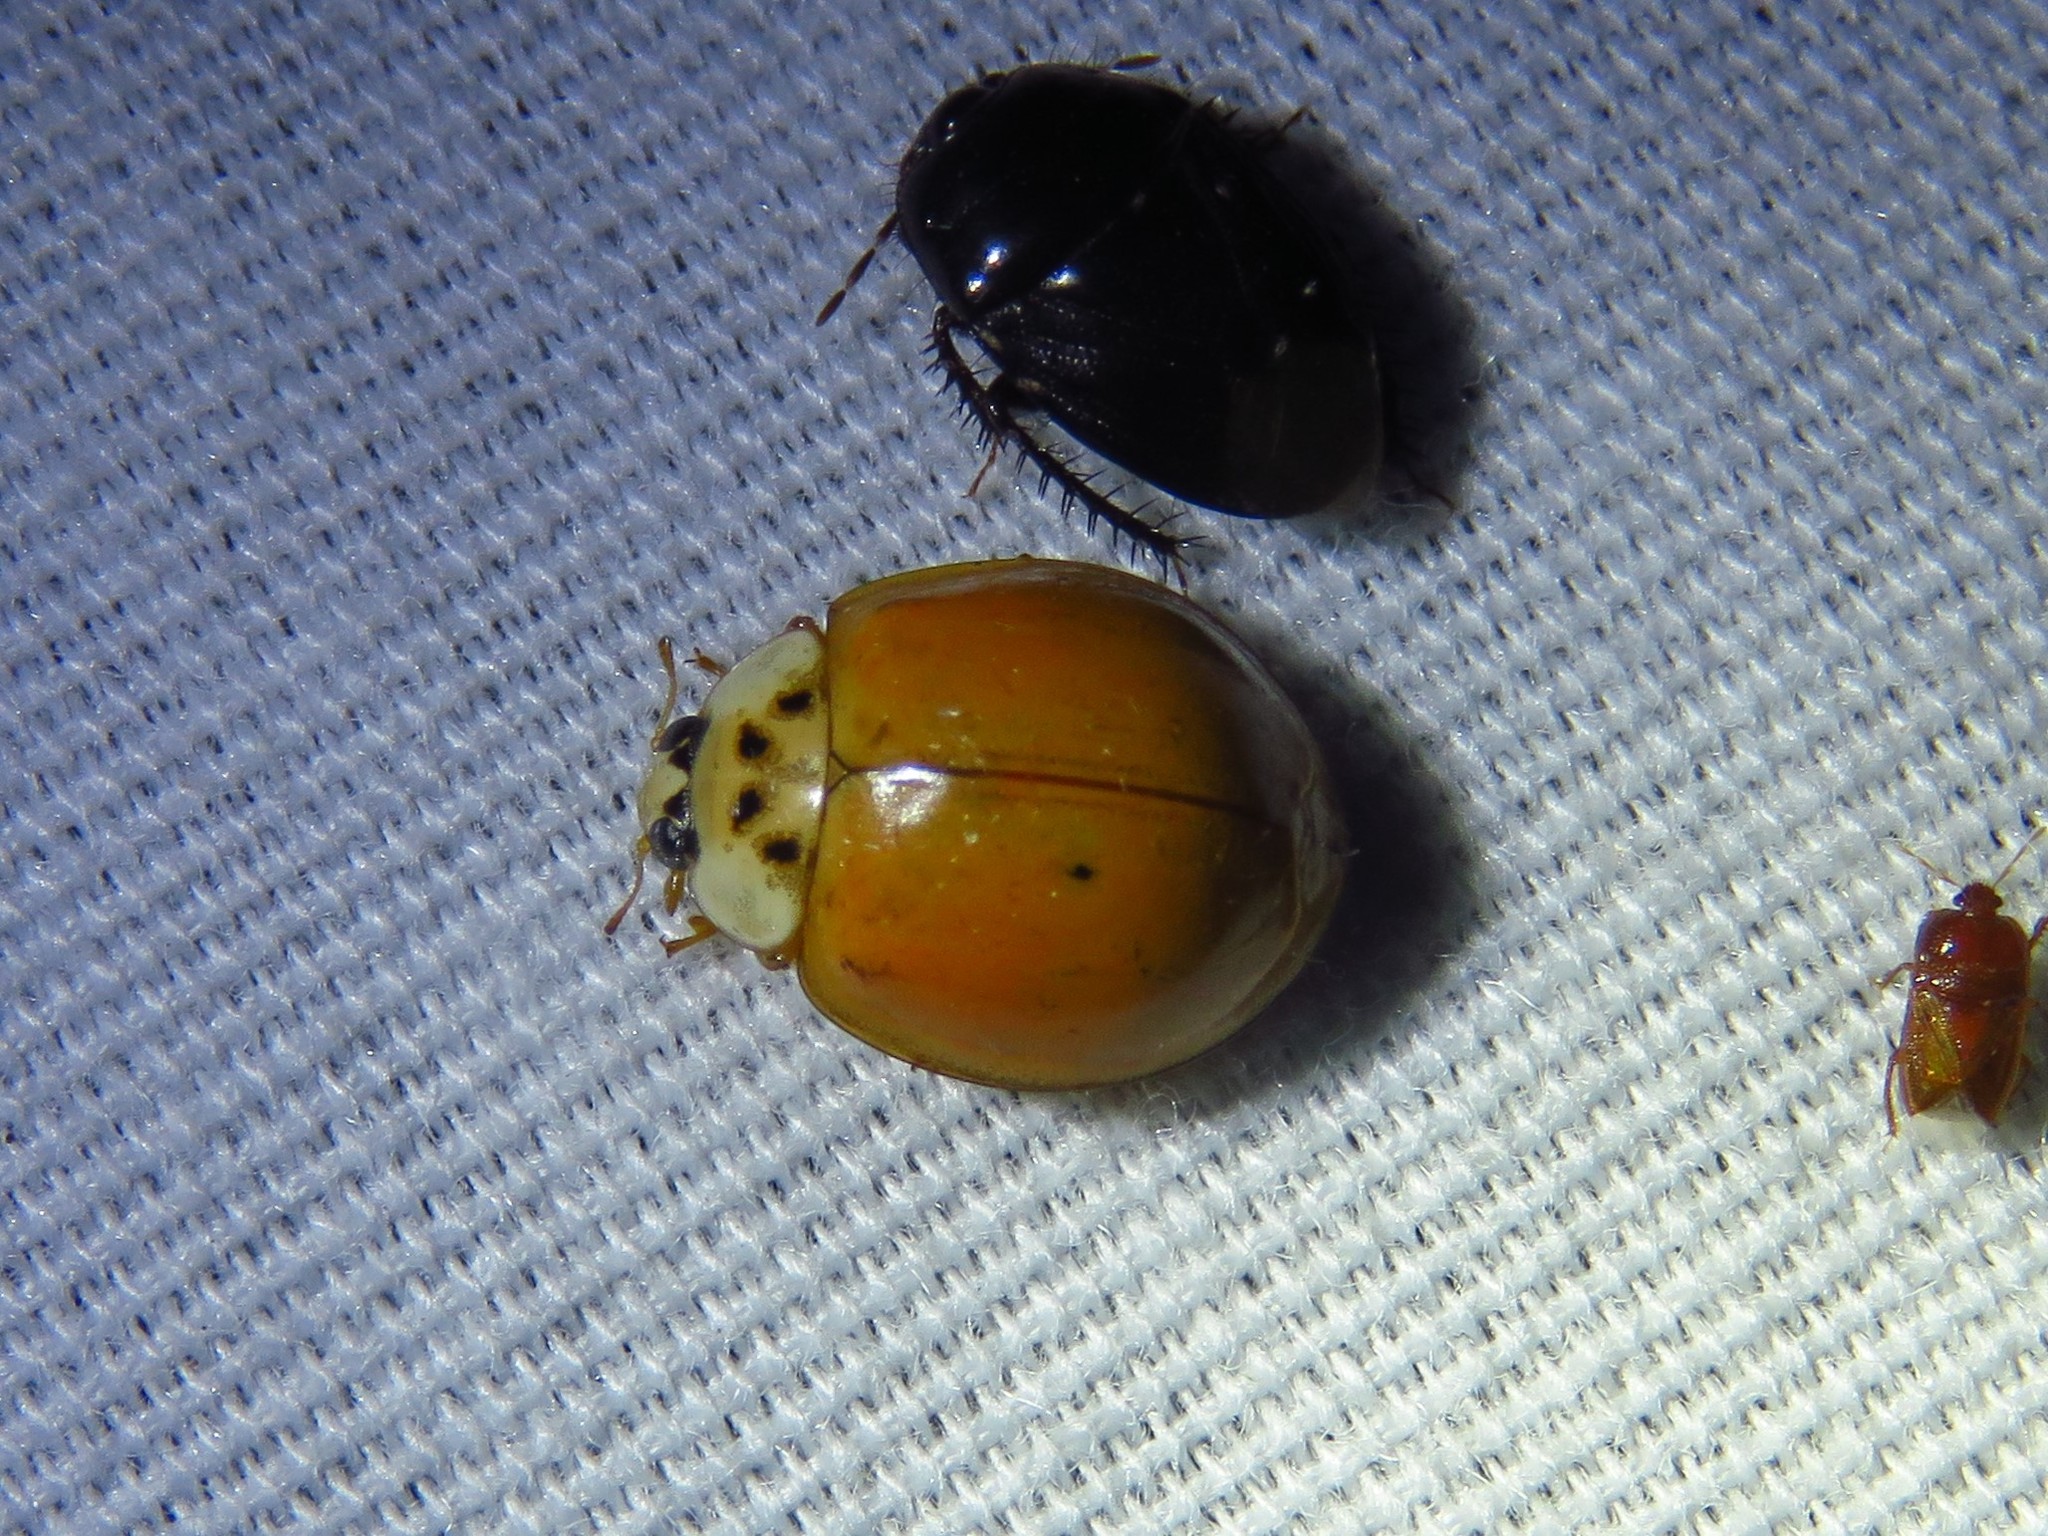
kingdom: Animalia
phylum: Arthropoda
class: Insecta
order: Coleoptera
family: Coccinellidae
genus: Harmonia
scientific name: Harmonia axyridis
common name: Harlequin ladybird
